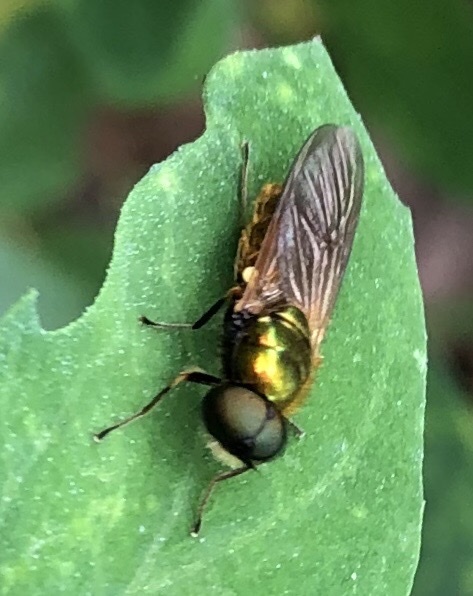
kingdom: Animalia
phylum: Arthropoda
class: Insecta
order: Diptera
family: Stratiomyidae
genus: Chloromyia
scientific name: Chloromyia formosa
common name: Soldier fly
